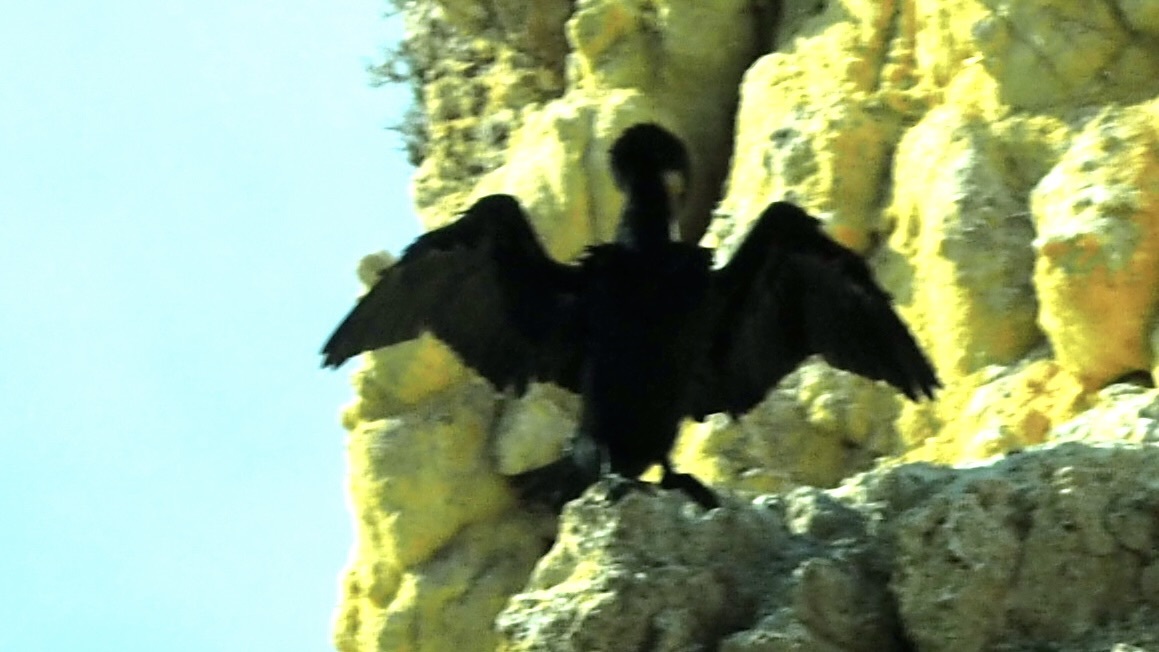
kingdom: Animalia
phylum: Chordata
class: Aves
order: Suliformes
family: Phalacrocoracidae
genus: Phalacrocorax
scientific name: Phalacrocorax carbo
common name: Great cormorant
